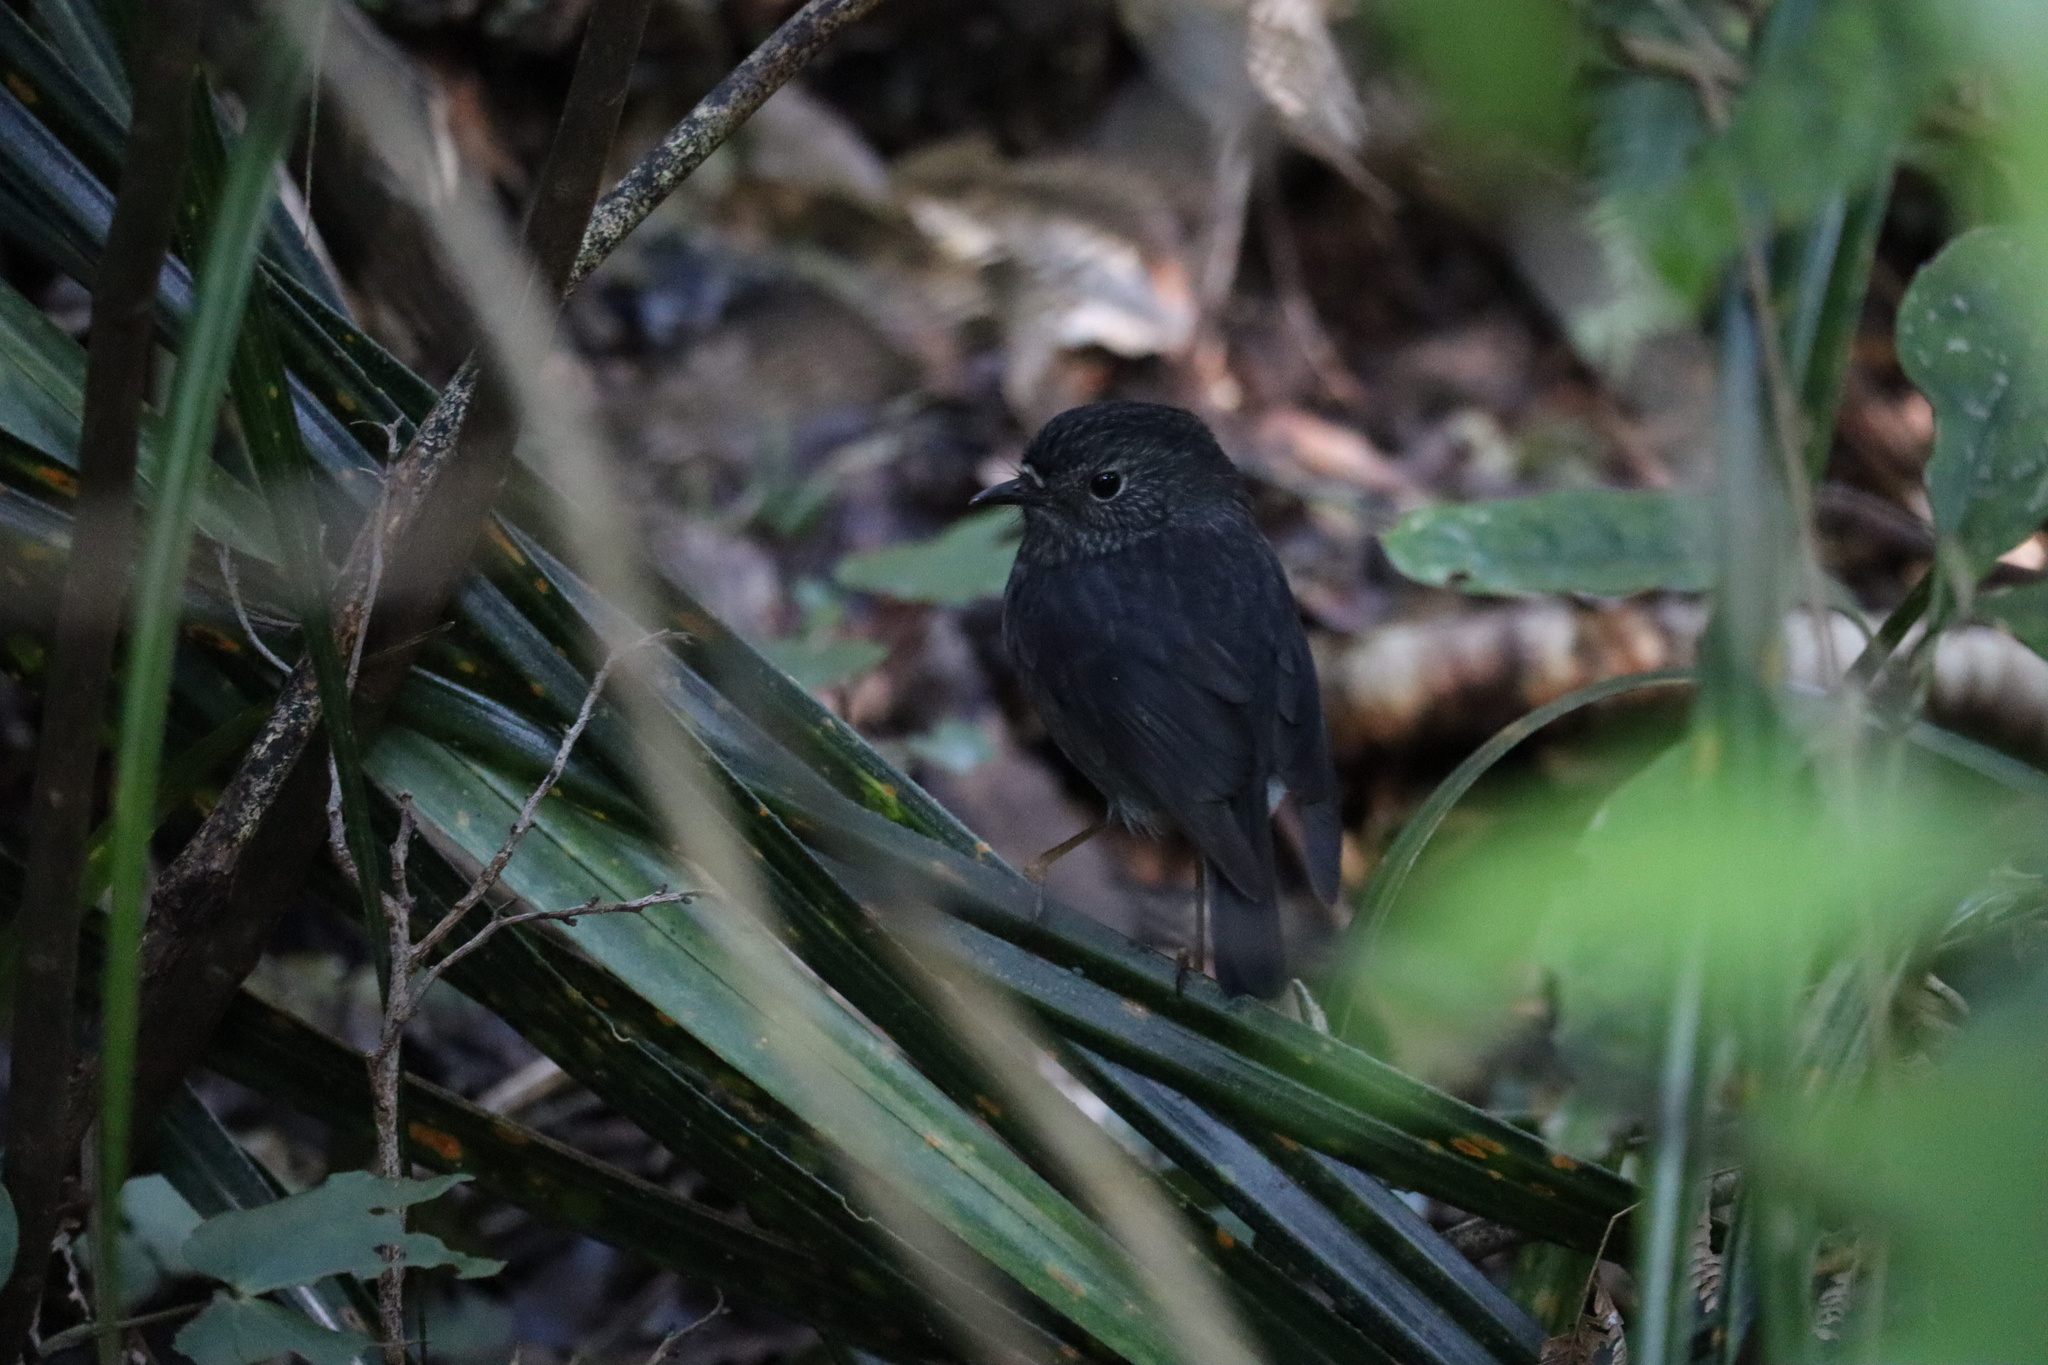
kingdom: Animalia
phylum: Chordata
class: Aves
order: Passeriformes
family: Petroicidae
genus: Petroica
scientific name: Petroica australis
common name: New zealand robin
